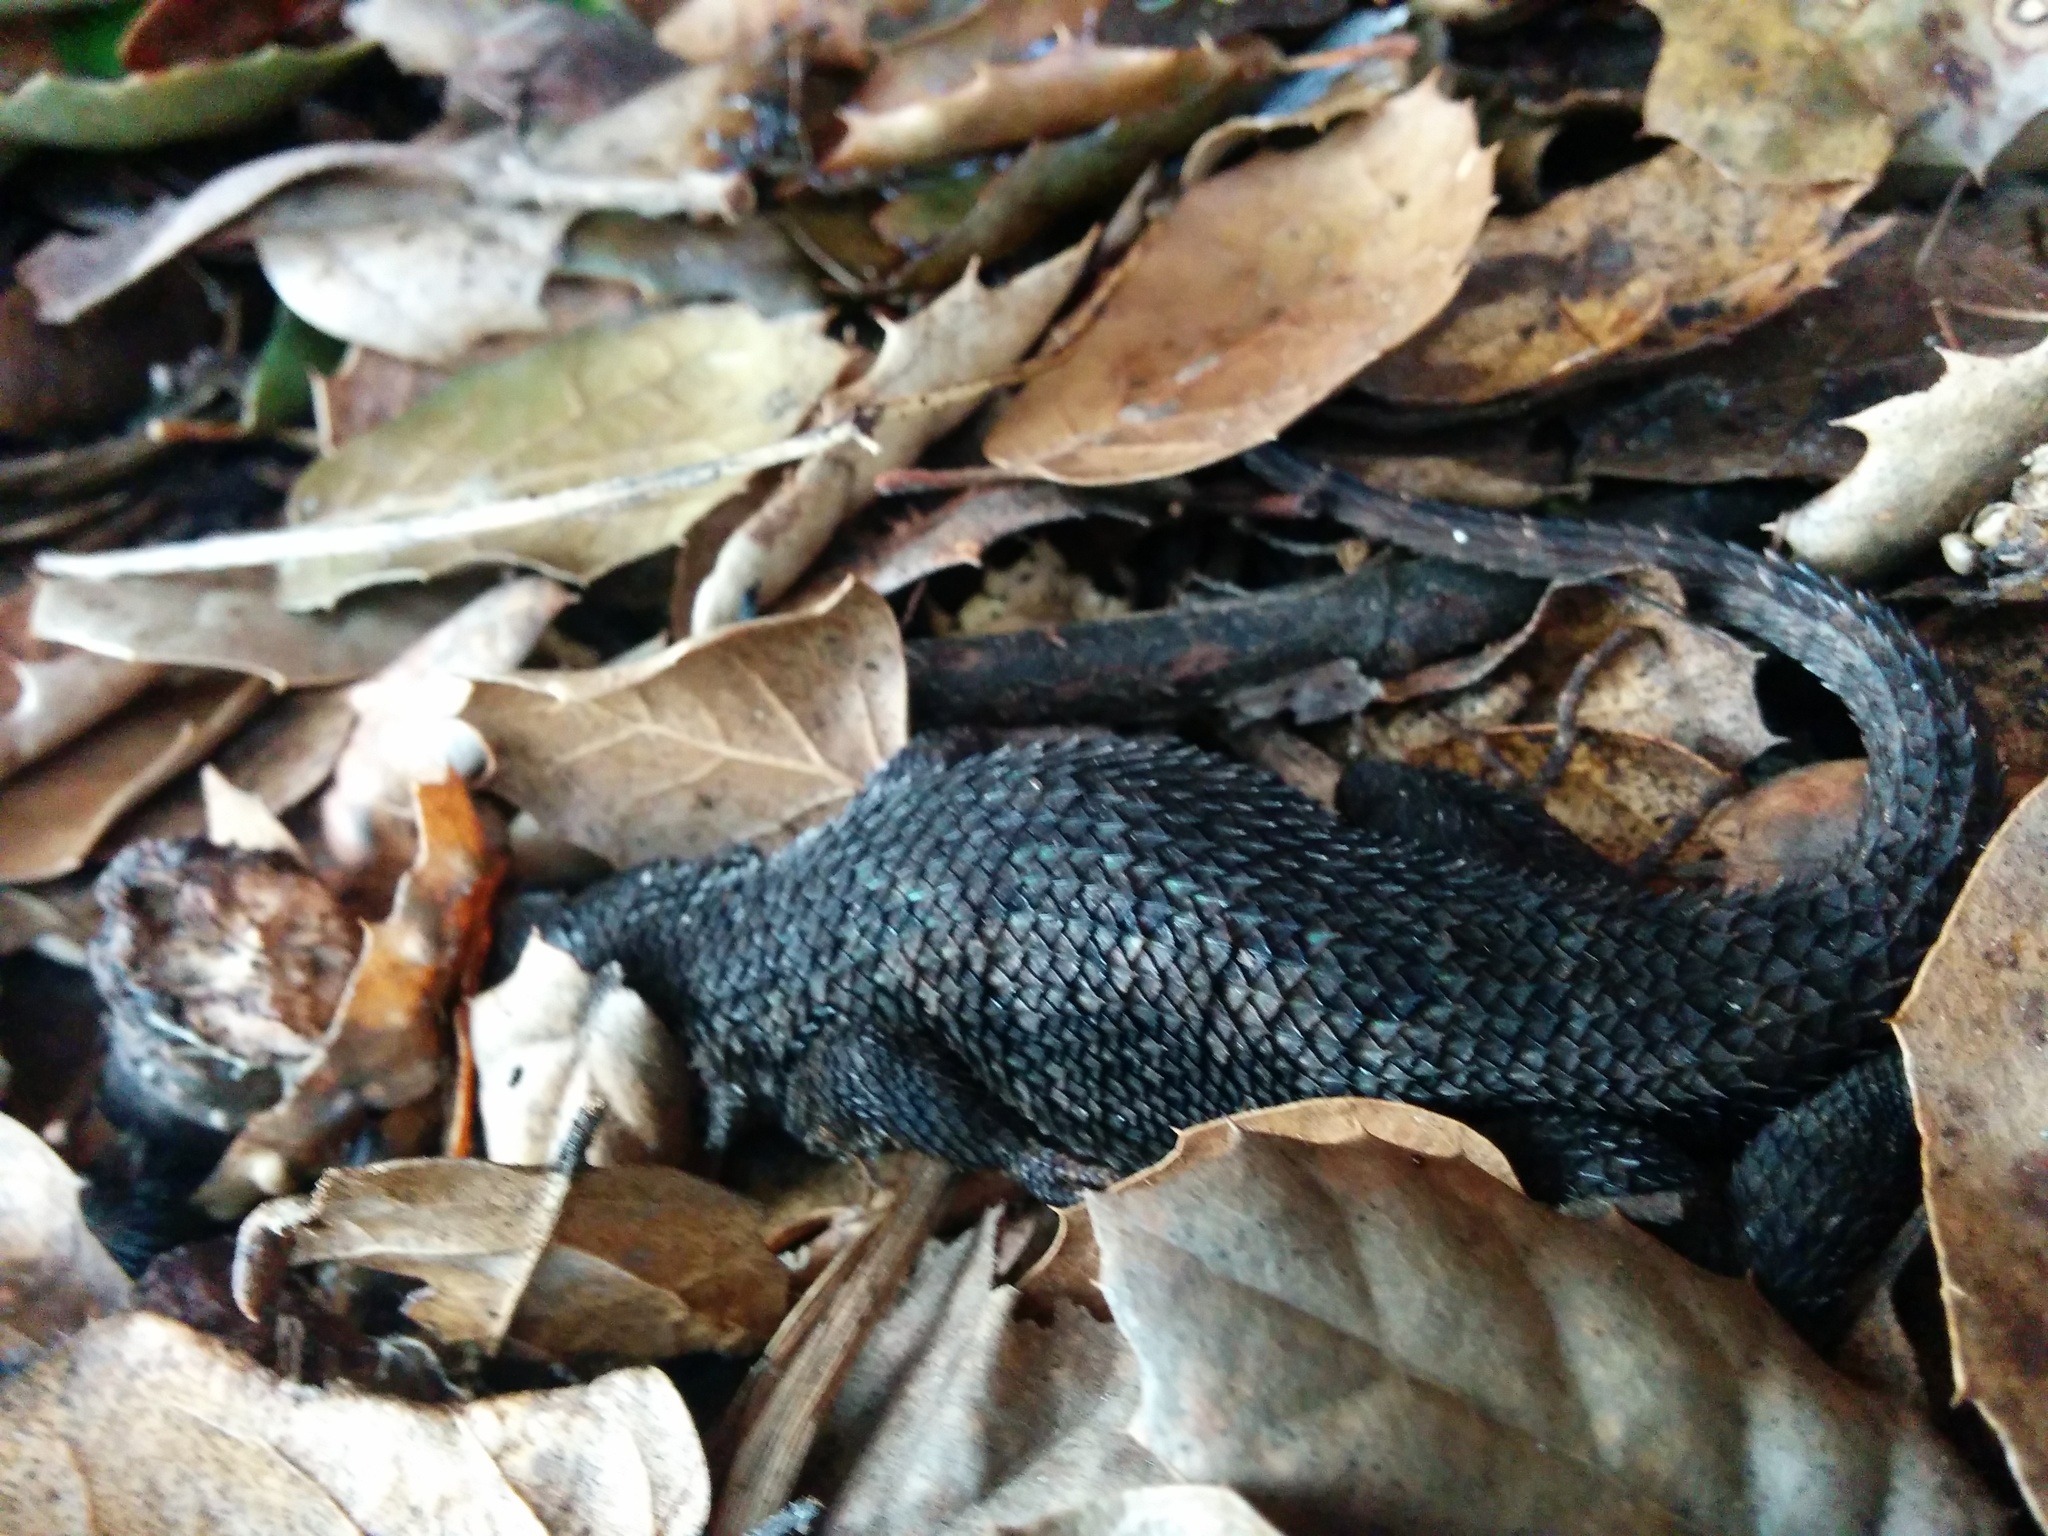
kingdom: Animalia
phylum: Chordata
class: Squamata
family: Phrynosomatidae
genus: Sceloporus
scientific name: Sceloporus occidentalis
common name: Western fence lizard
